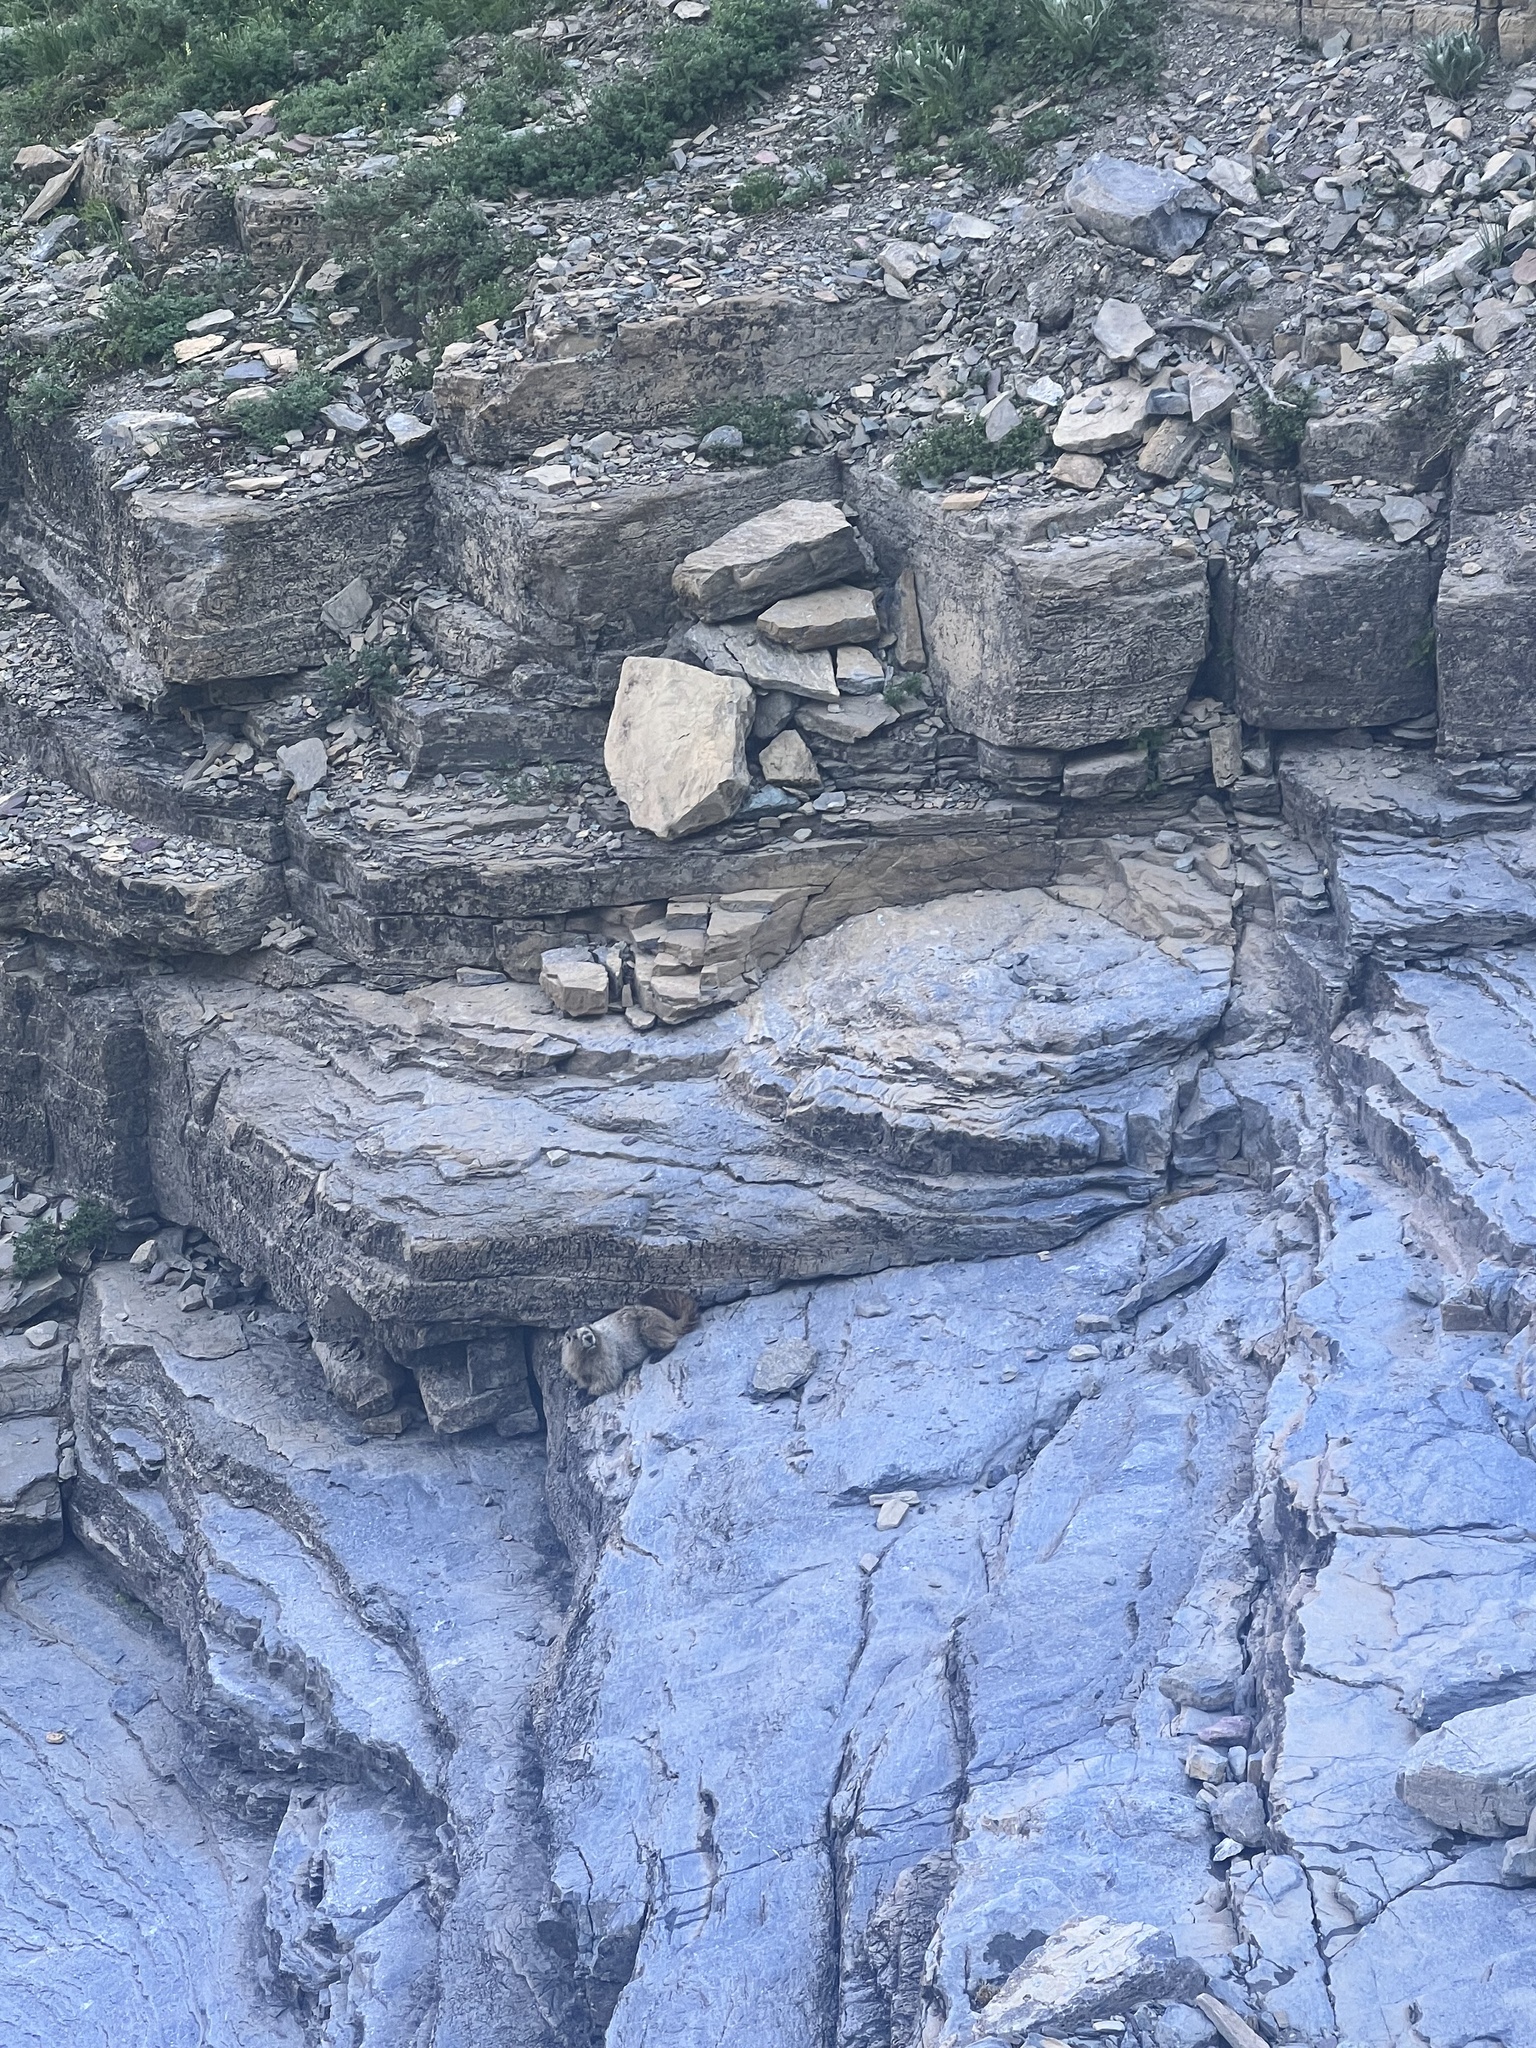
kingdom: Animalia
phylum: Chordata
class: Mammalia
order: Rodentia
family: Sciuridae
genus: Marmota
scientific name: Marmota caligata
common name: Hoary marmot
